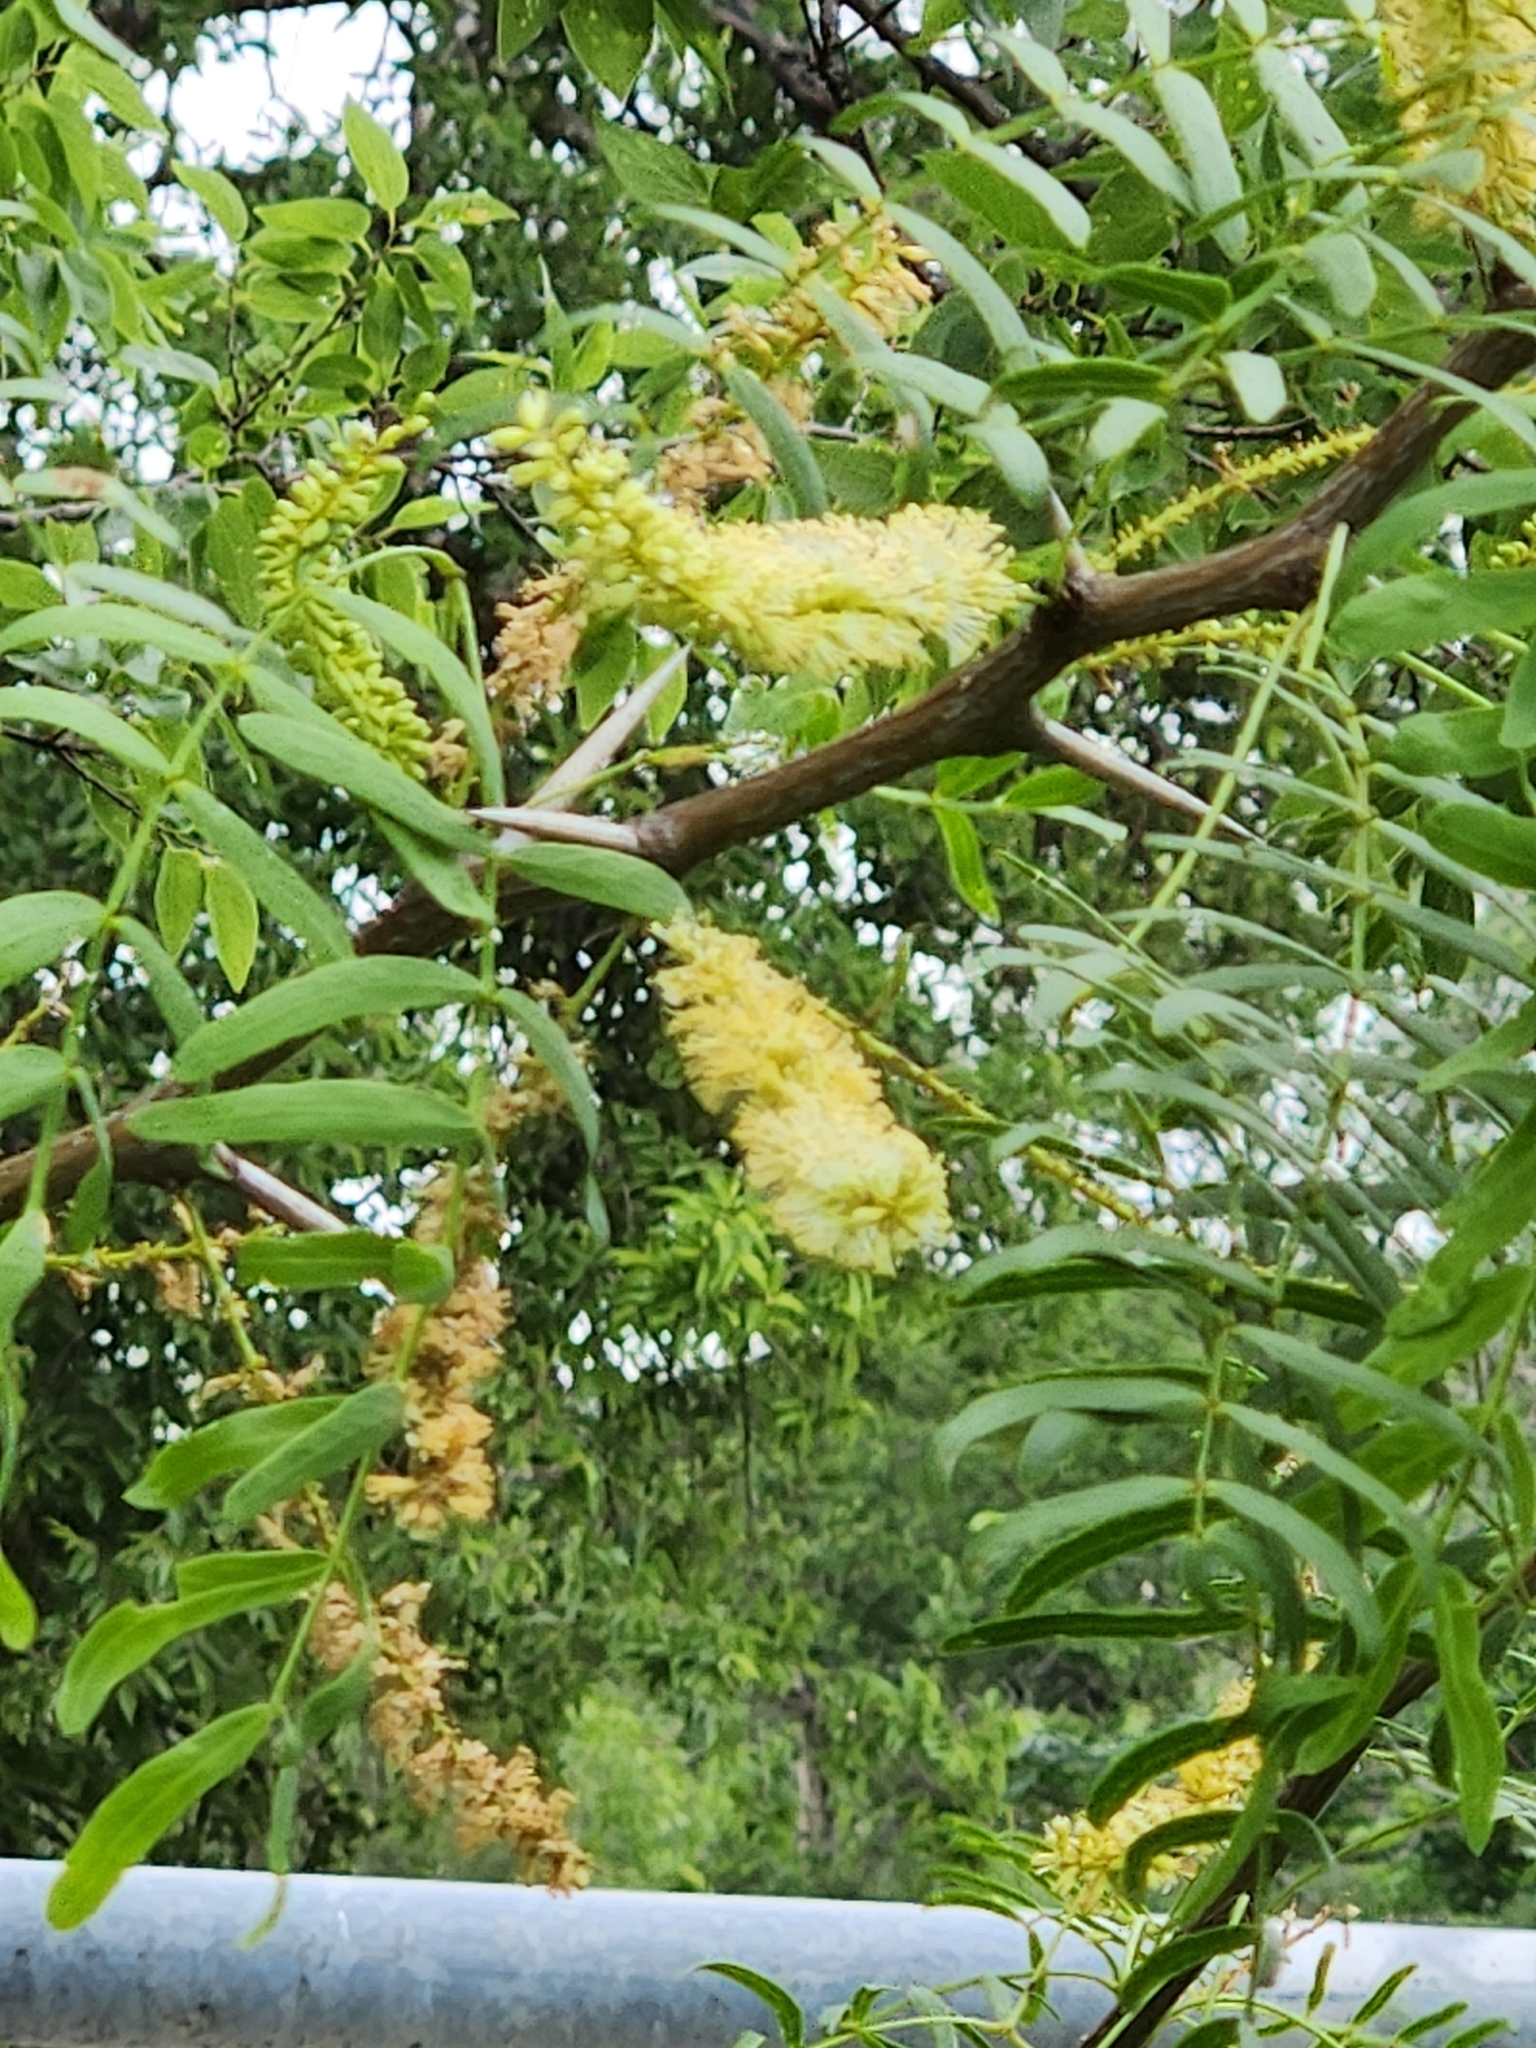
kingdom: Plantae
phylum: Tracheophyta
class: Magnoliopsida
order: Fabales
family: Fabaceae
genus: Prosopis
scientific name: Prosopis glandulosa
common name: Honey mesquite
